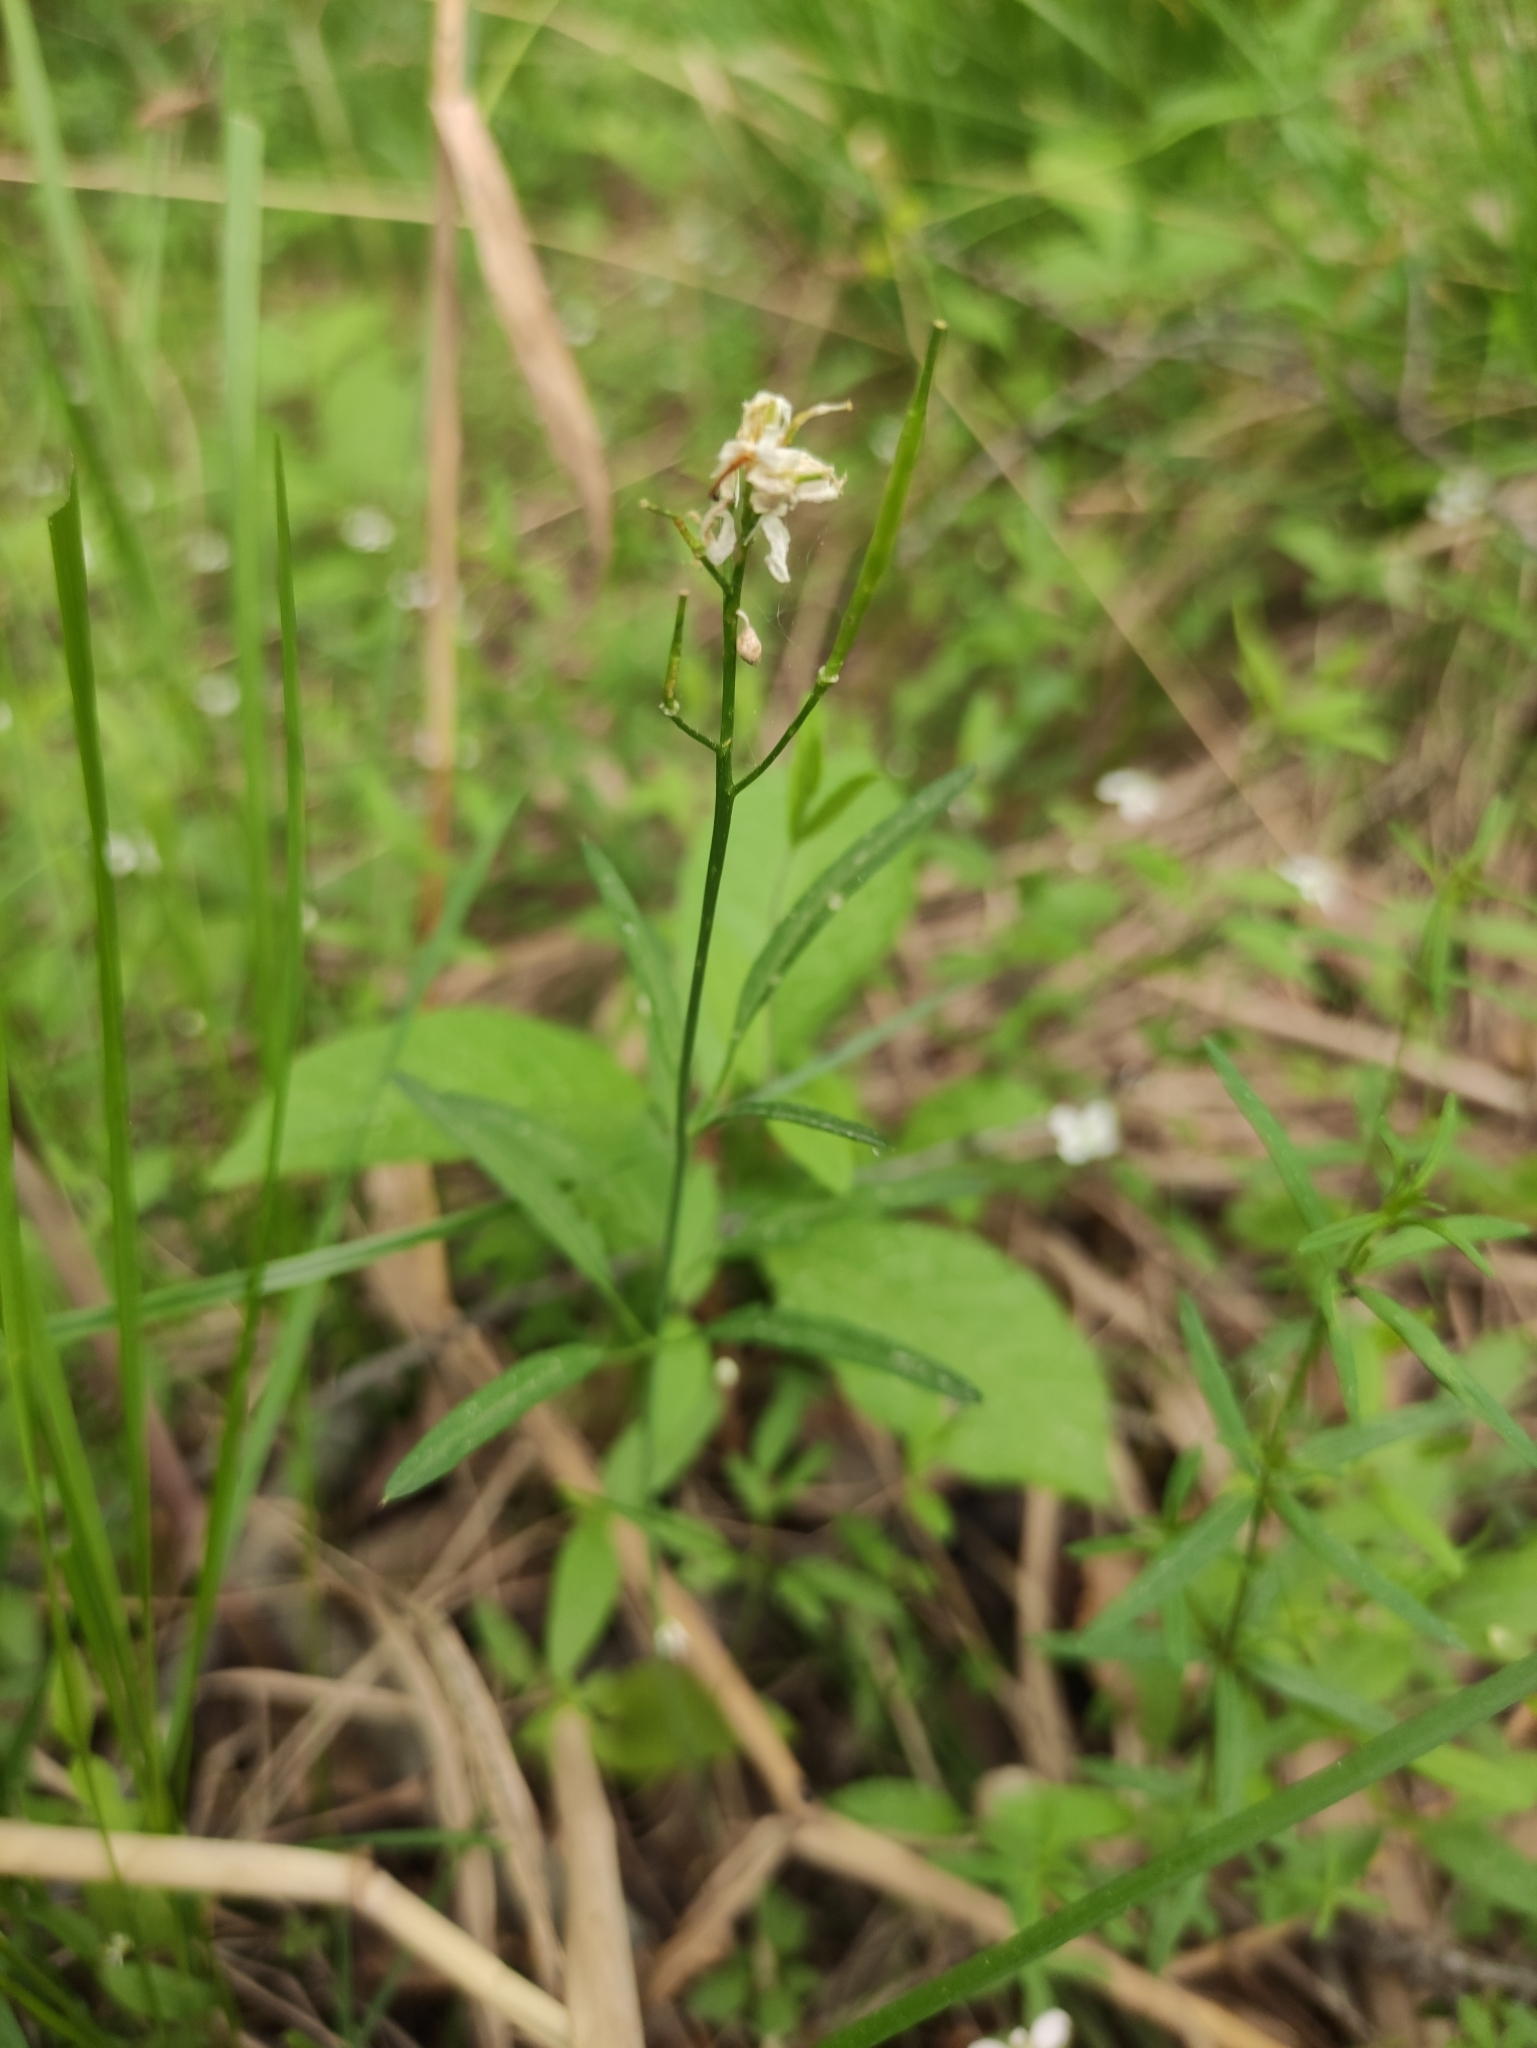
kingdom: Plantae
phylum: Tracheophyta
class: Magnoliopsida
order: Brassicales
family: Brassicaceae
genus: Cardamine
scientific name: Cardamine trifida
